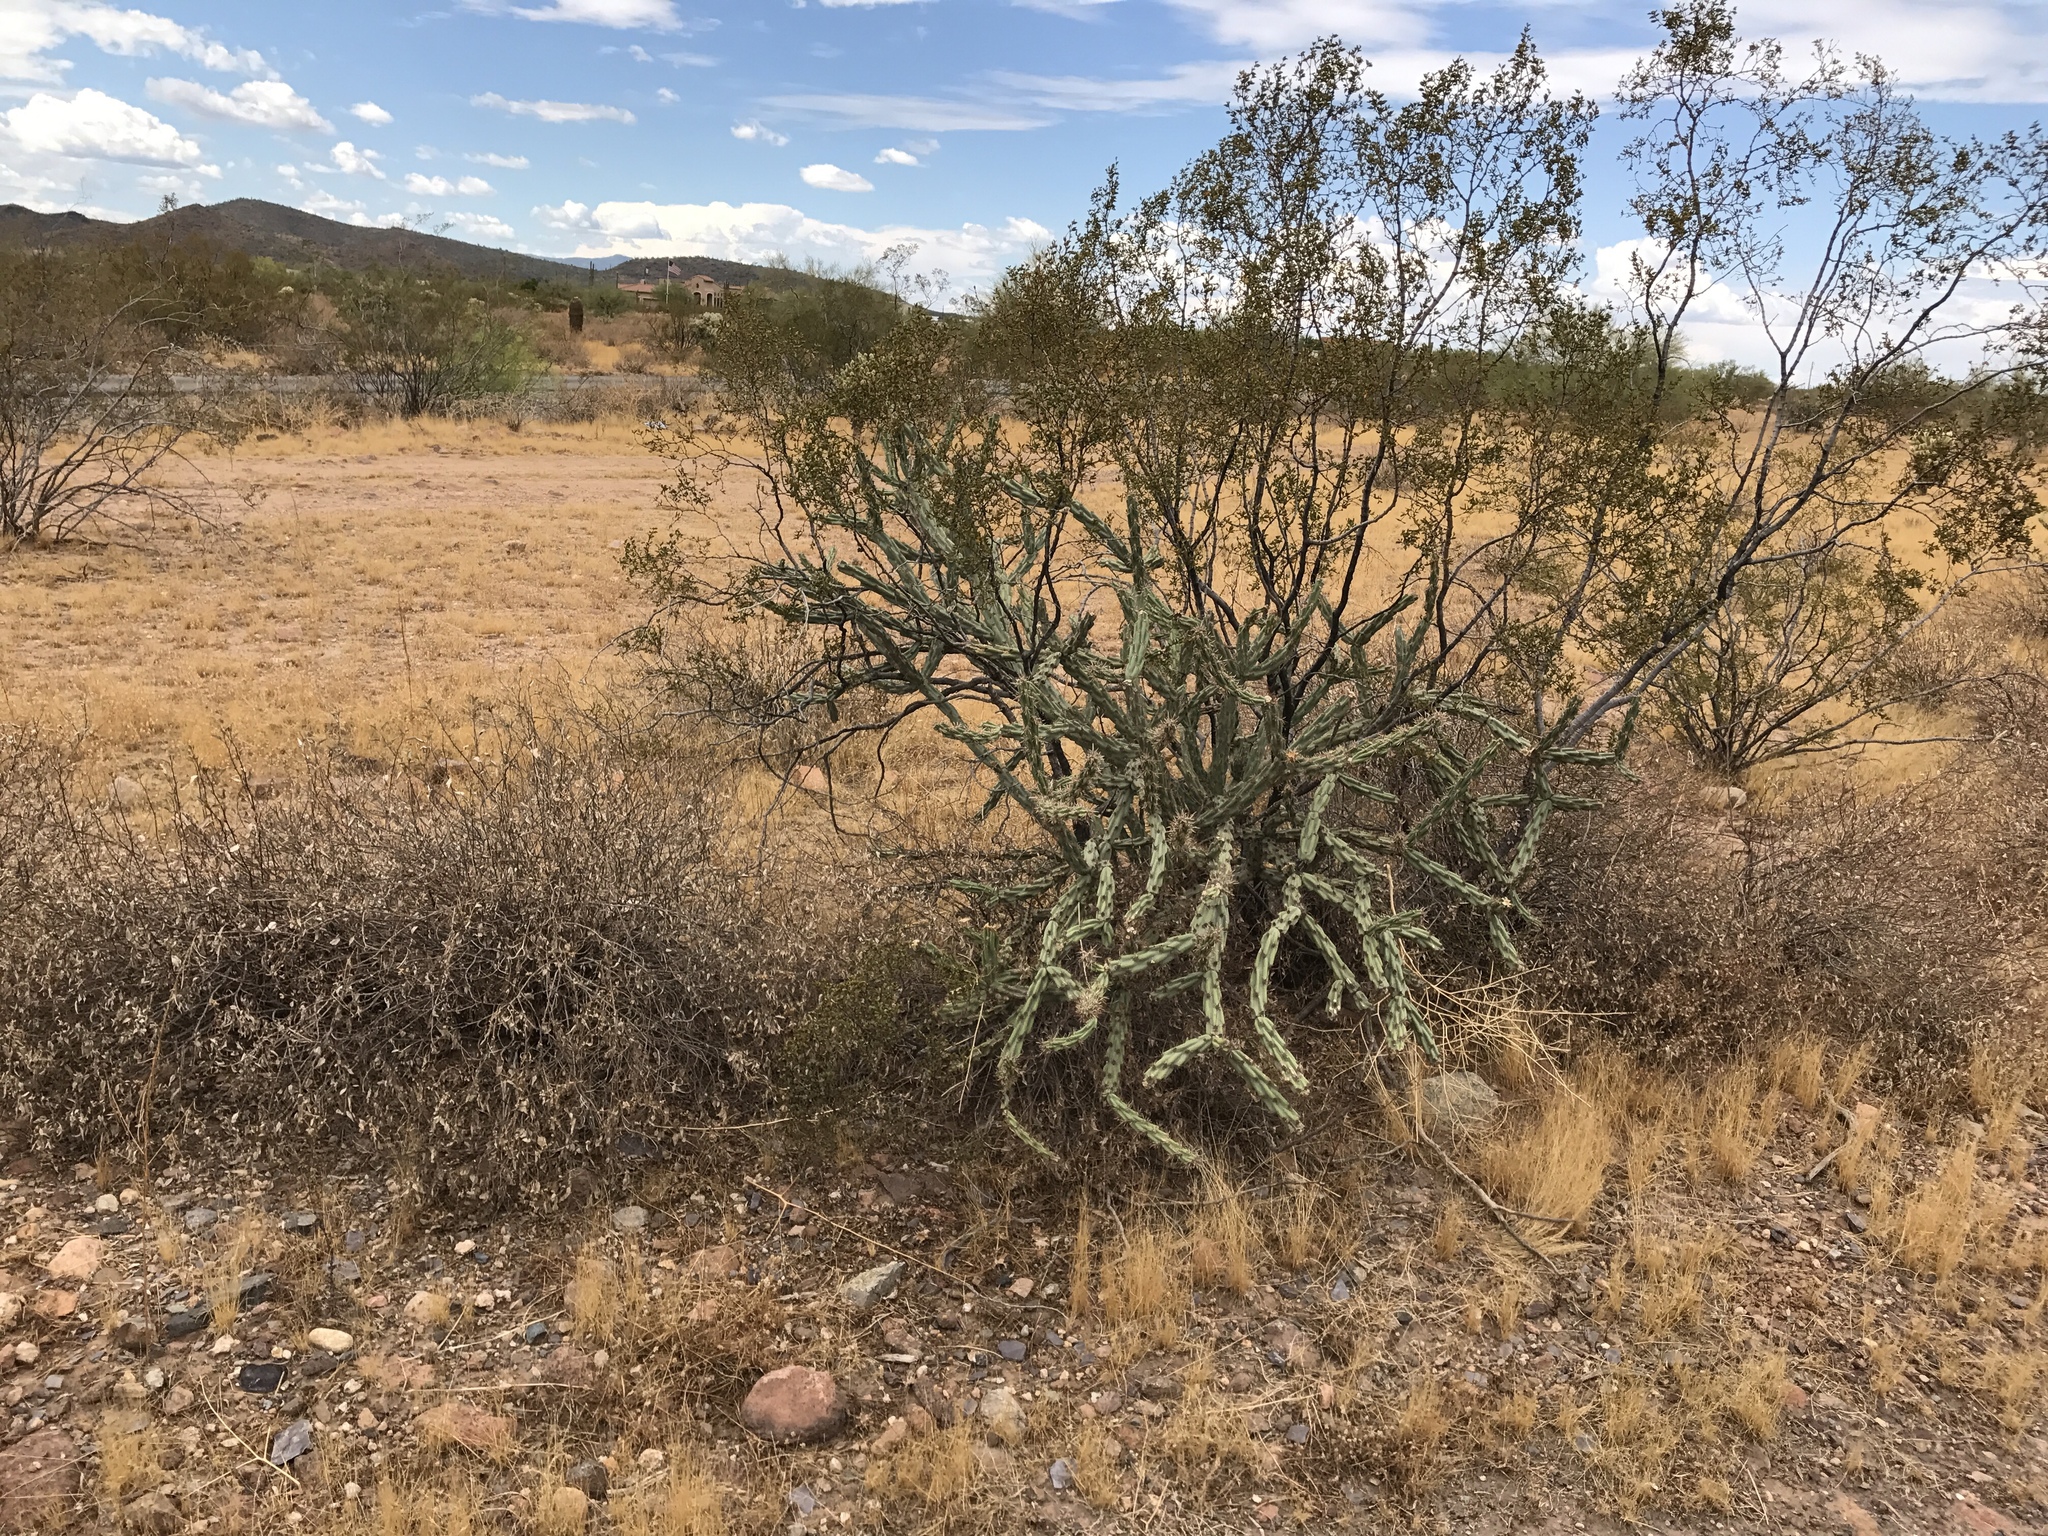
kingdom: Plantae
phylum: Tracheophyta
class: Magnoliopsida
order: Caryophyllales
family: Cactaceae
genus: Cylindropuntia
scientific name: Cylindropuntia acanthocarpa
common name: Buckhorn cholla
